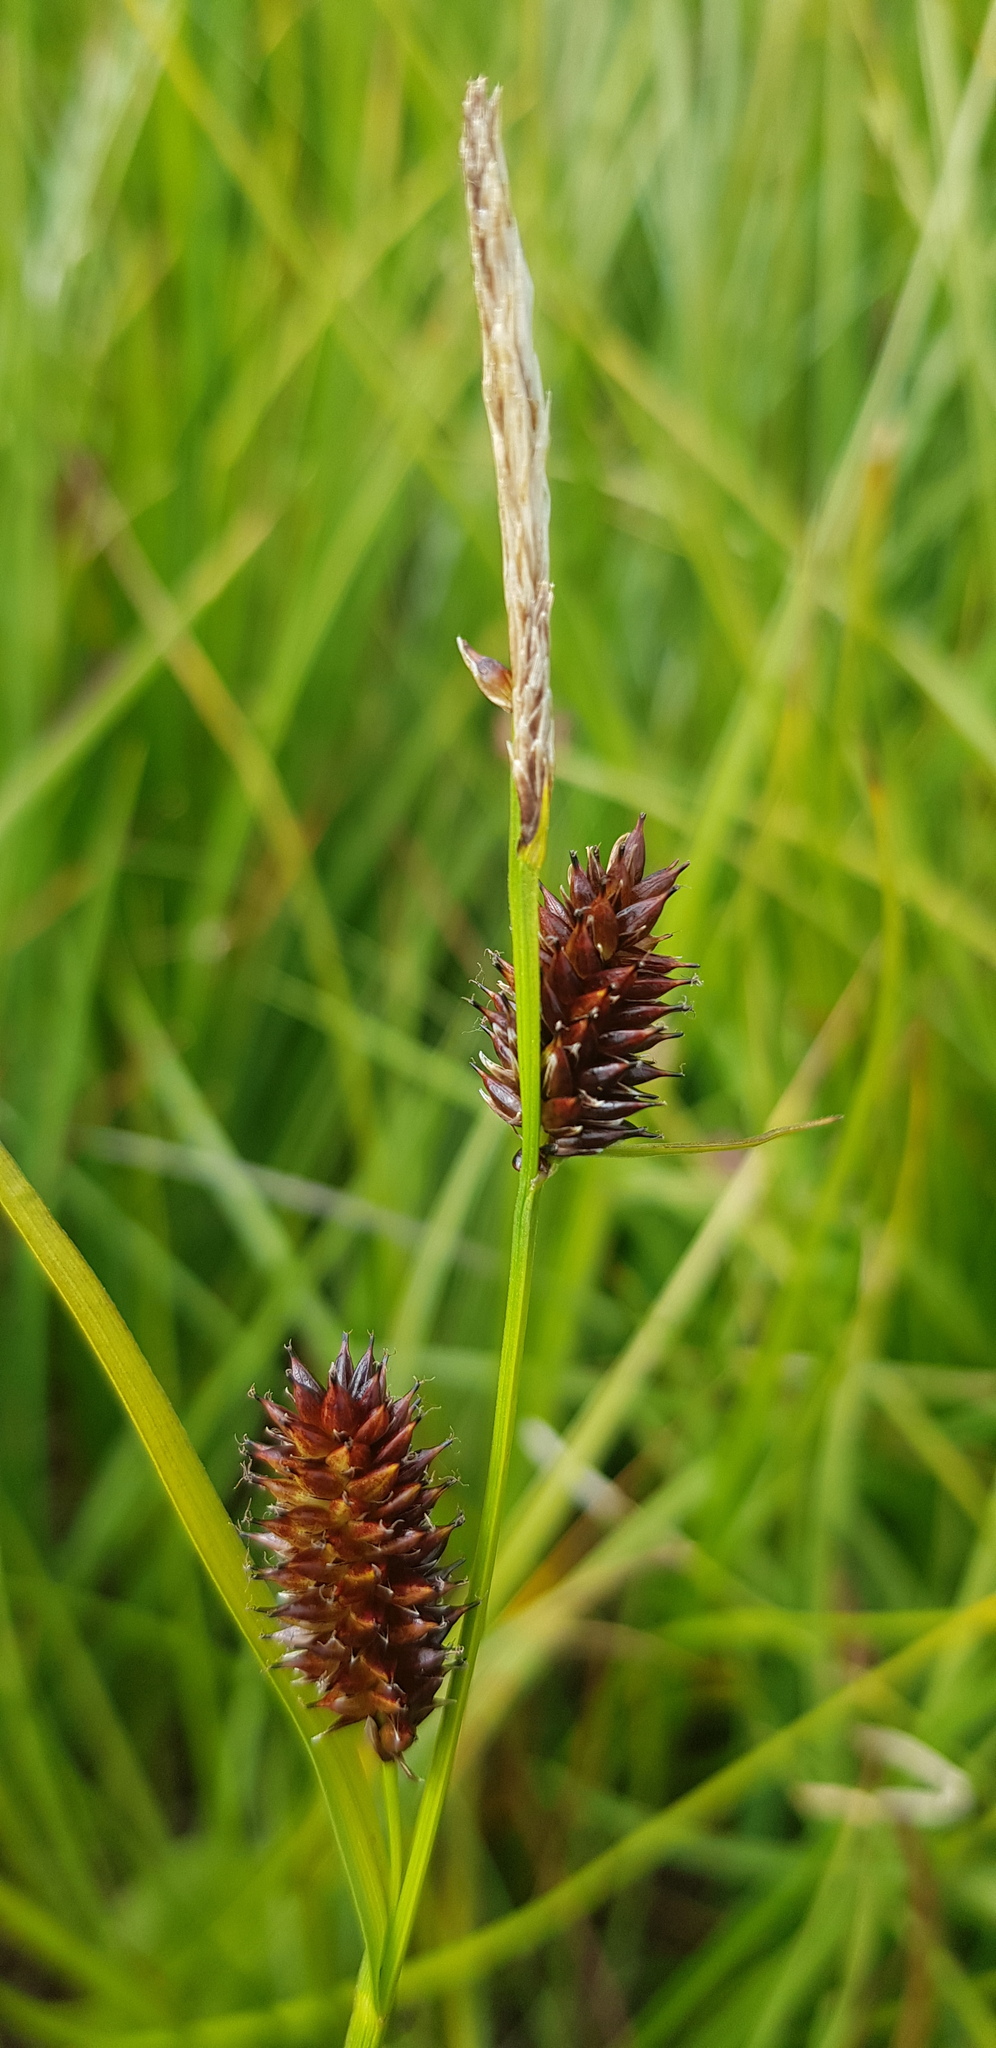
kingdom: Plantae
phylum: Tracheophyta
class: Liliopsida
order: Poales
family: Cyperaceae
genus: Carex
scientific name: Carex parallela
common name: Parallel sedge
